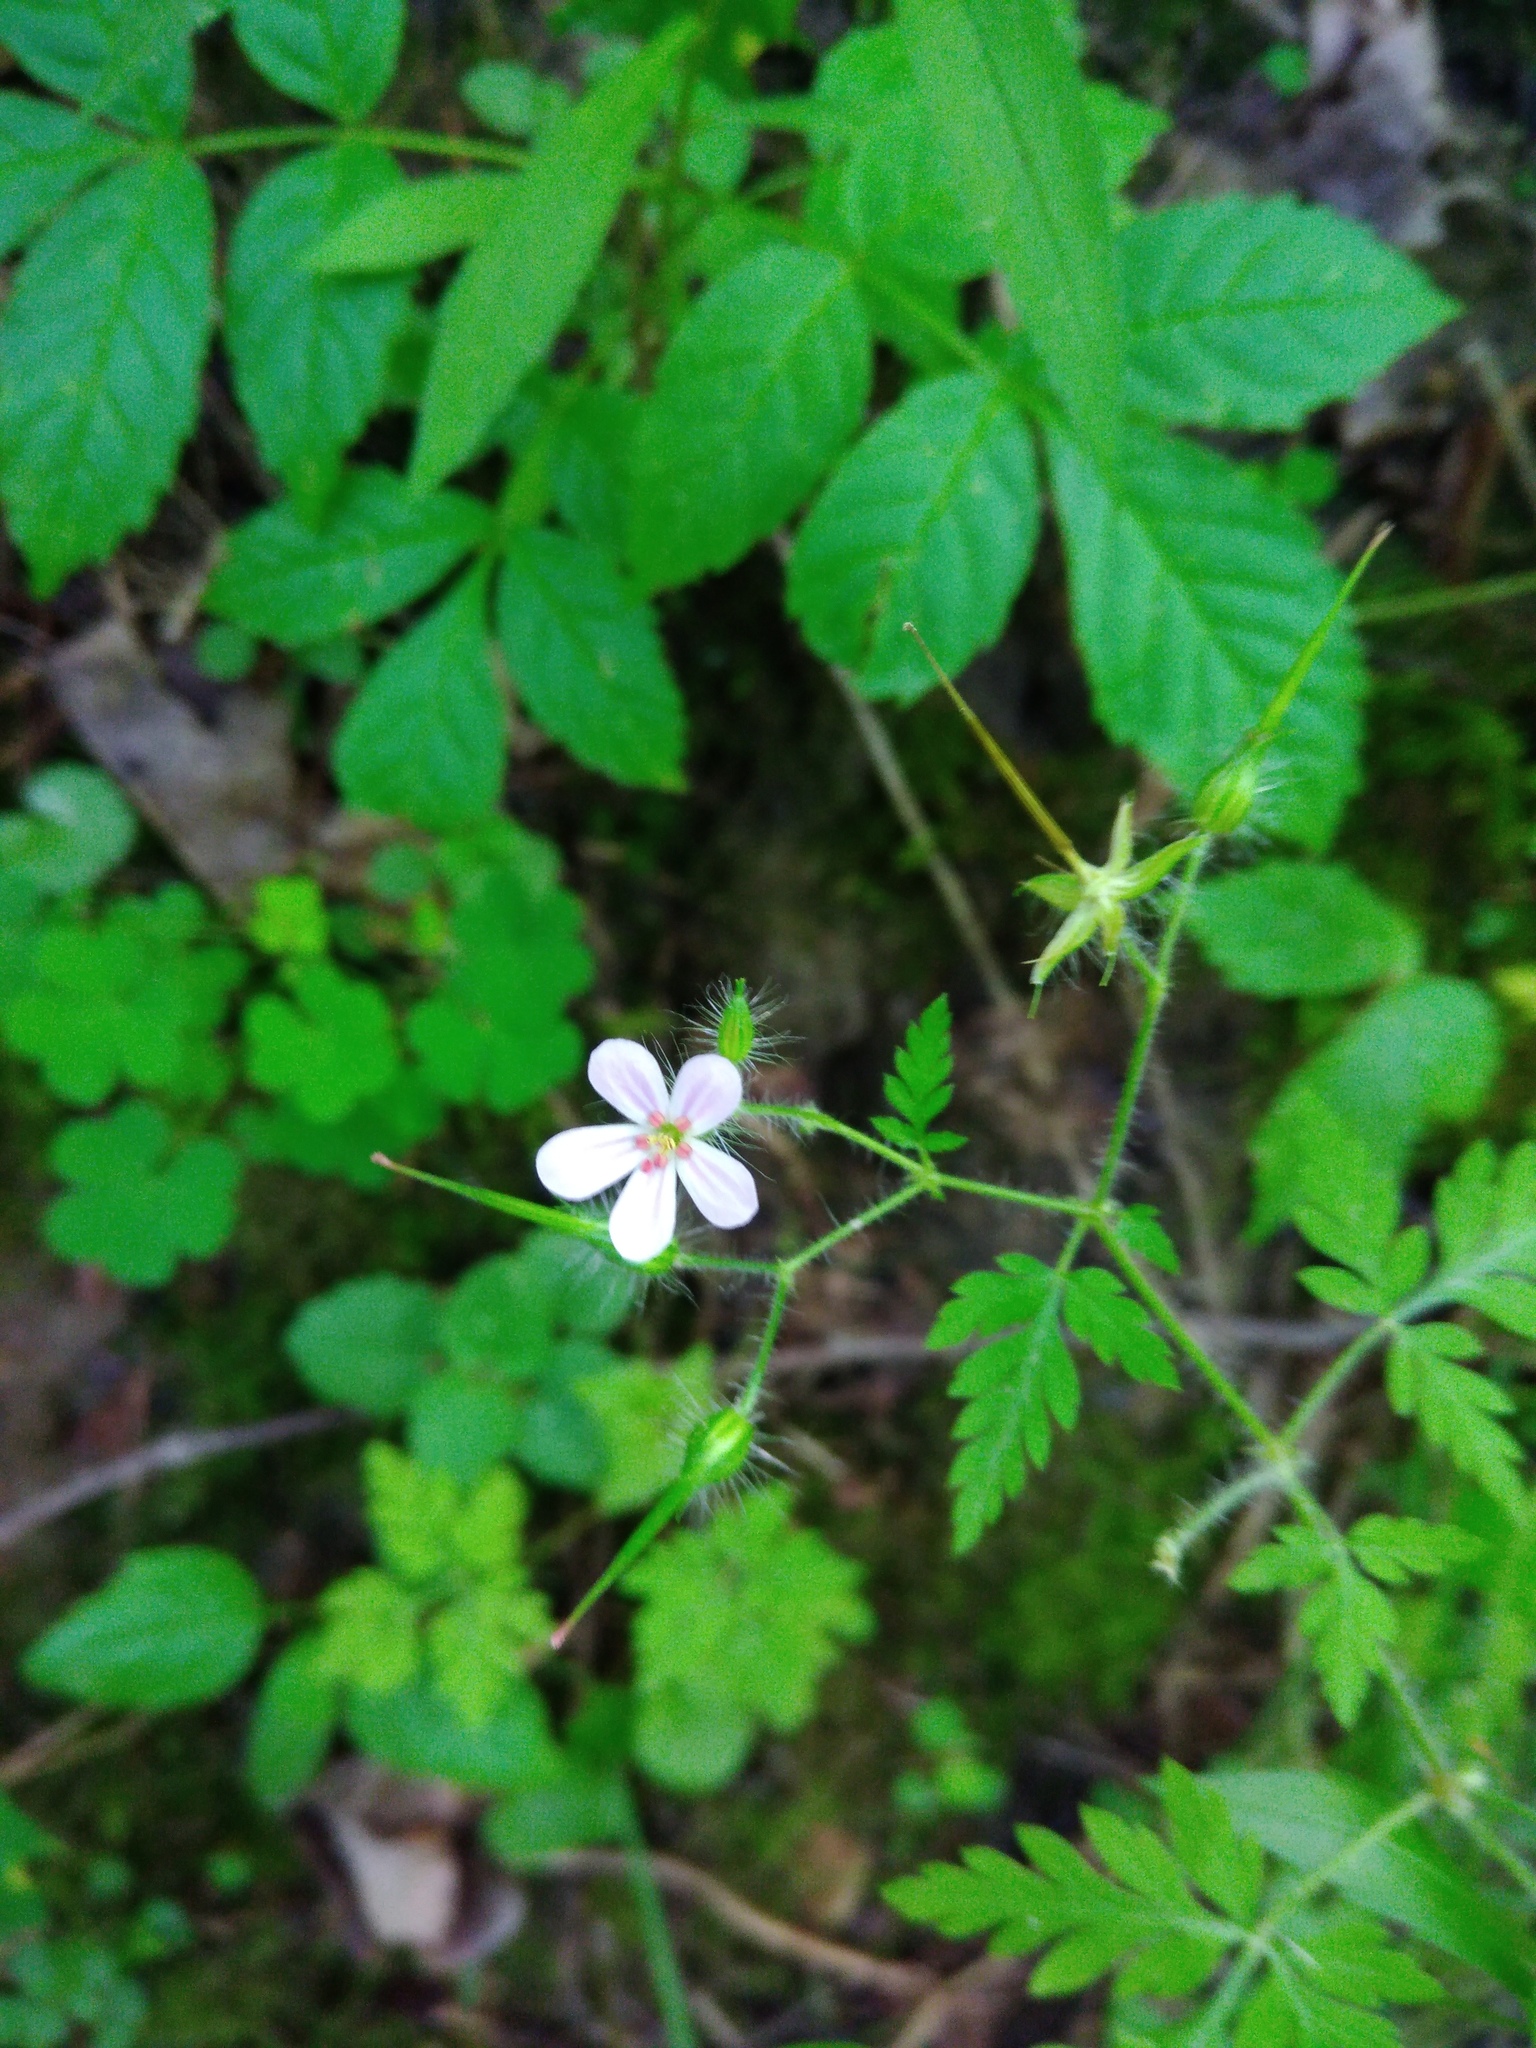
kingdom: Plantae
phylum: Tracheophyta
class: Magnoliopsida
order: Geraniales
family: Geraniaceae
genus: Geranium
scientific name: Geranium robertianum
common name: Herb-robert
